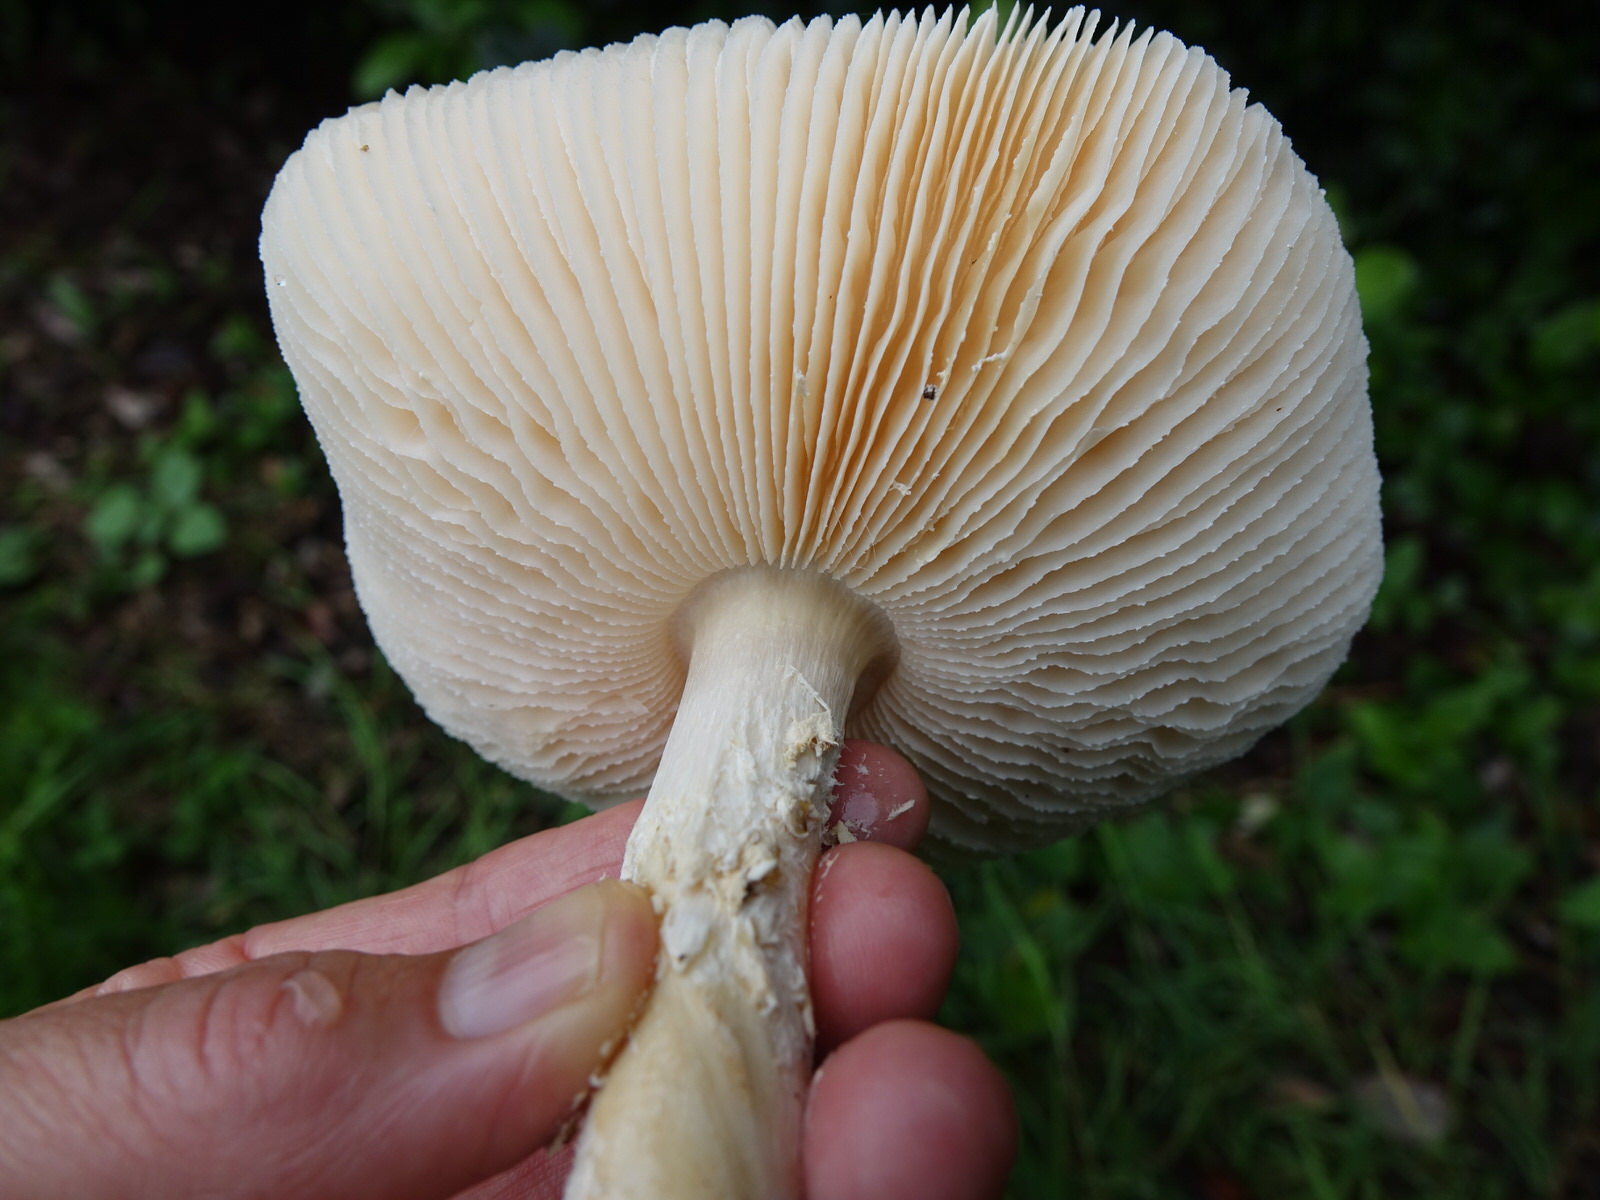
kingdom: Fungi
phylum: Basidiomycota
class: Agaricomycetes
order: Agaricales
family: Amanitaceae
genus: Amanita
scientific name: Amanita nauseosa
